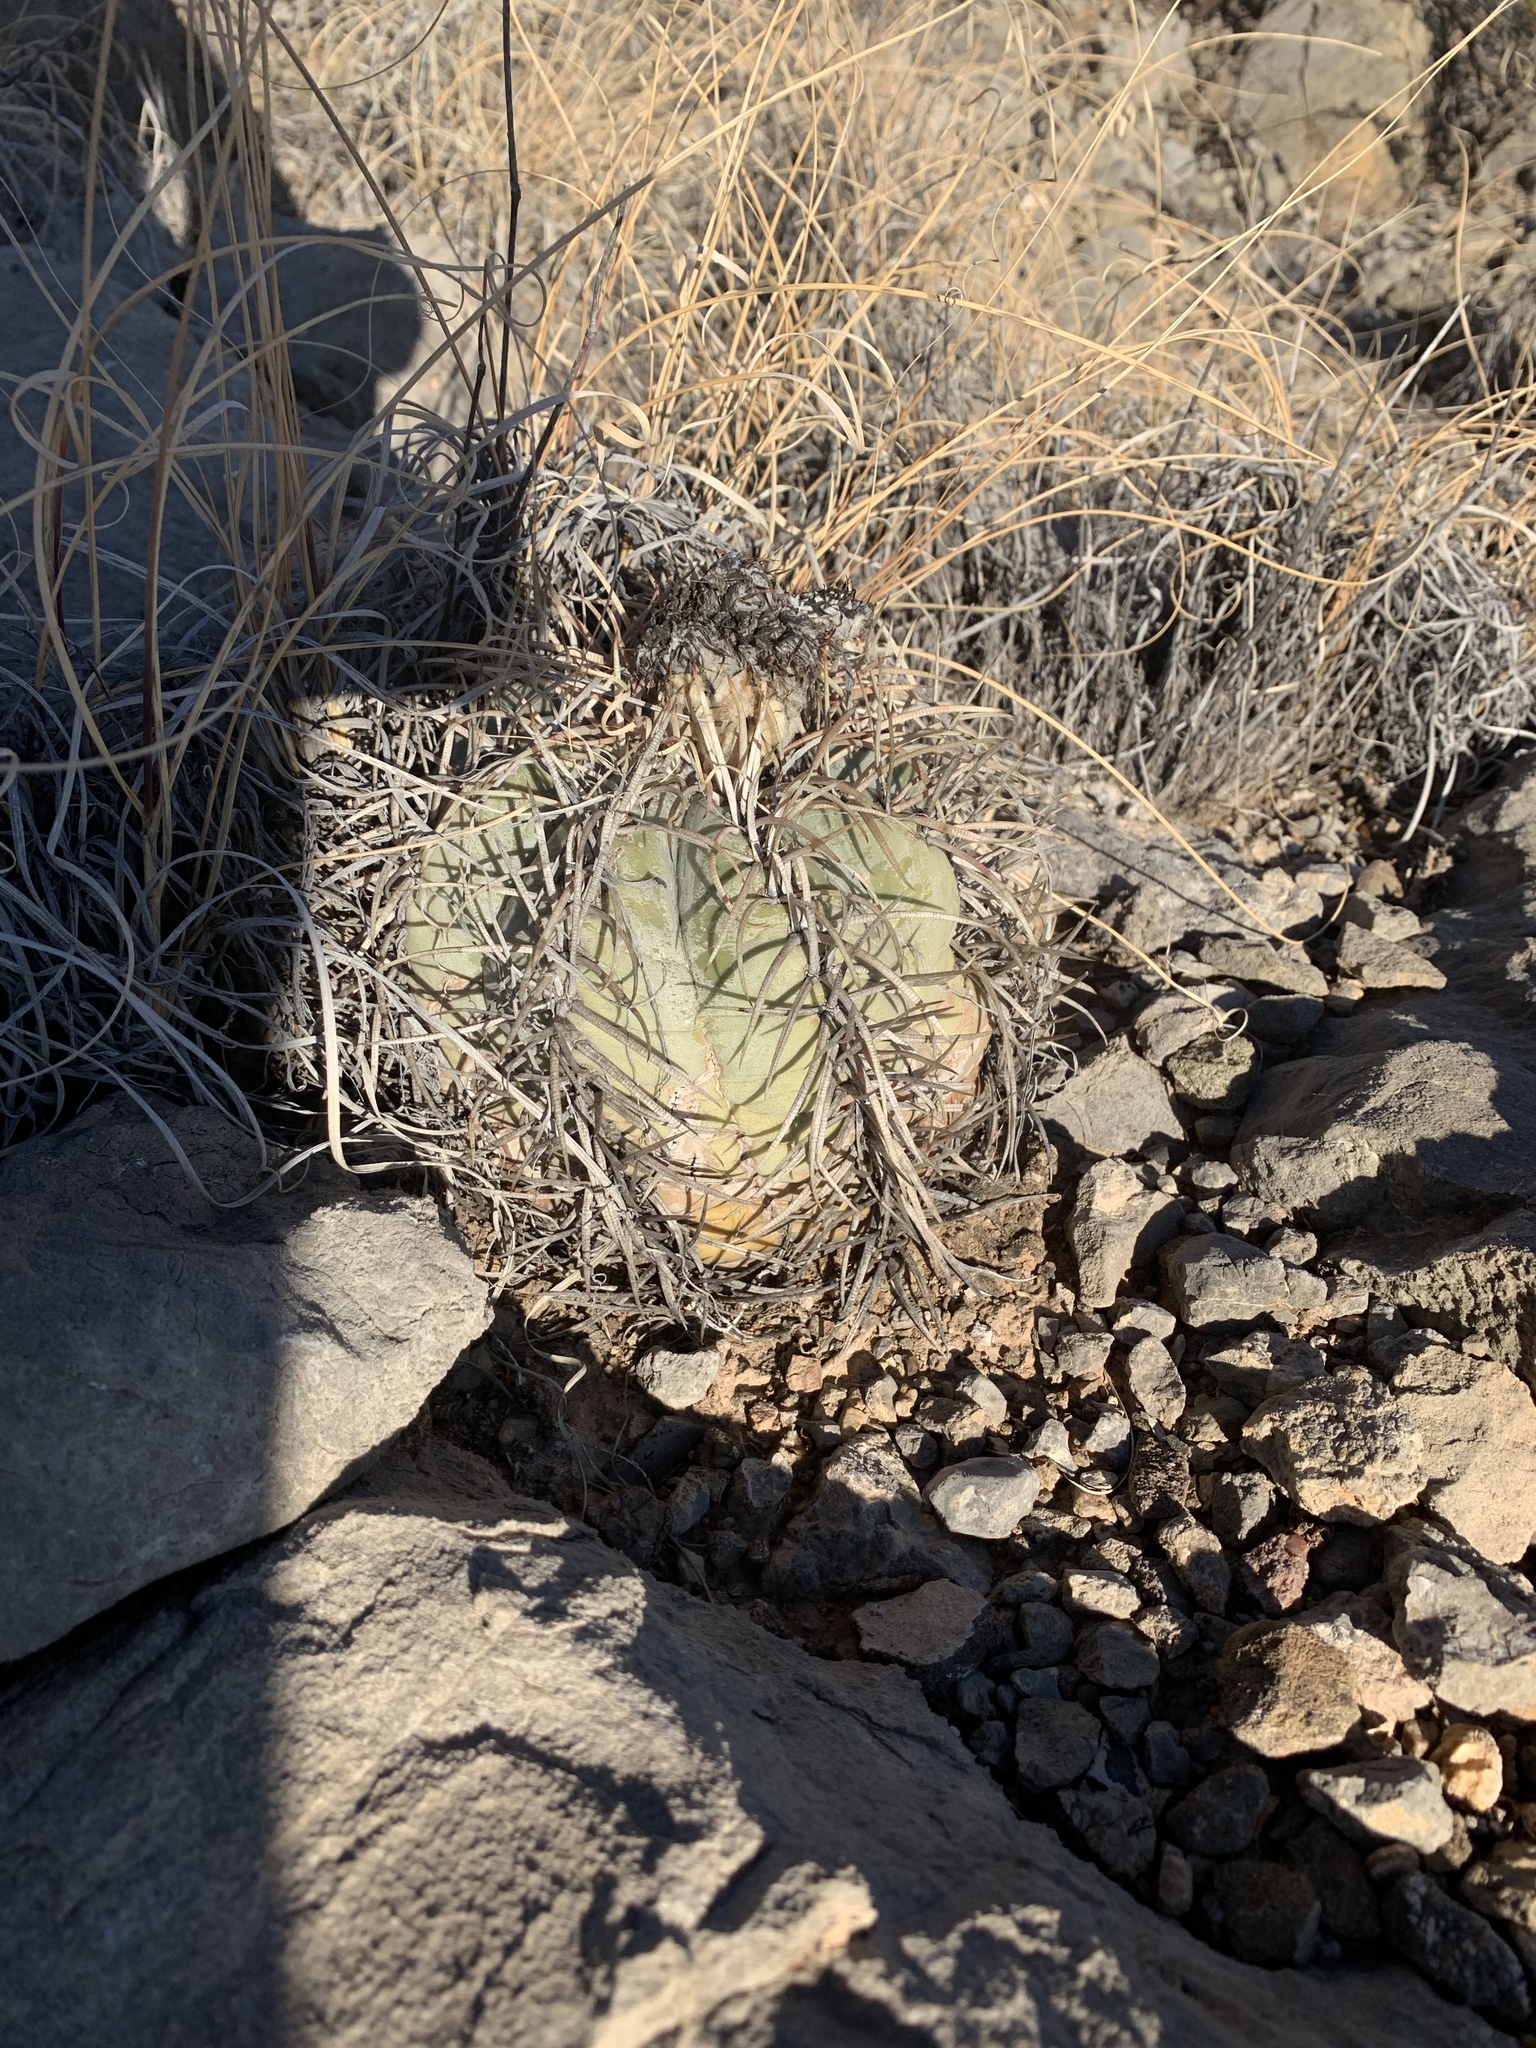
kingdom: Plantae
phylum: Tracheophyta
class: Magnoliopsida
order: Caryophyllales
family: Cactaceae
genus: Echinocactus
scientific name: Echinocactus horizonthalonius
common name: Devilshead
